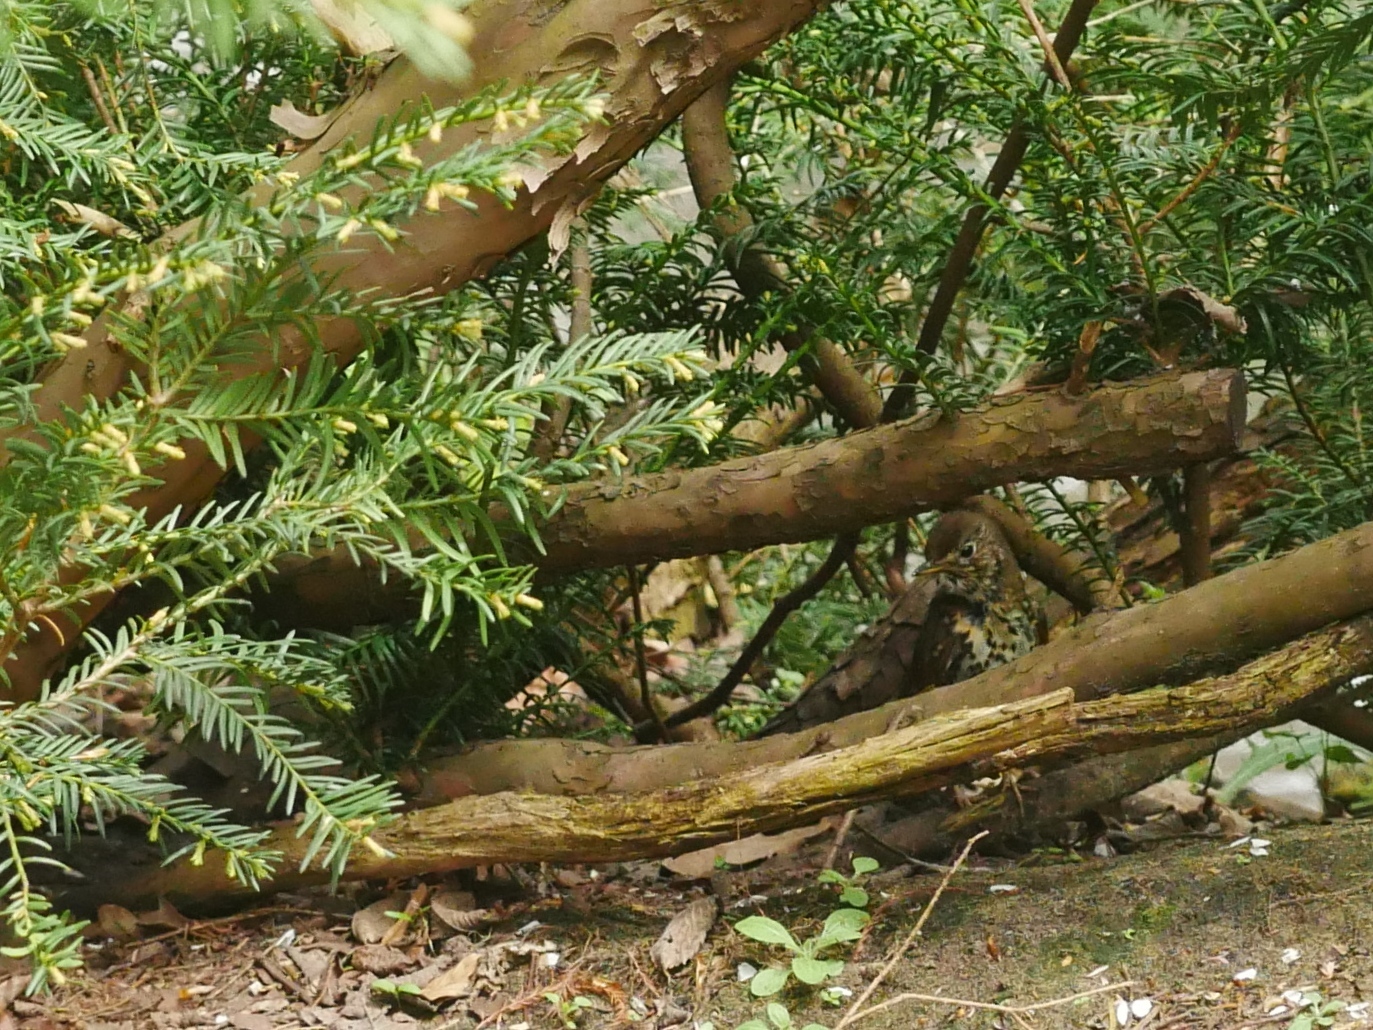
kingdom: Plantae
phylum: Tracheophyta
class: Pinopsida
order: Pinales
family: Taxaceae
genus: Taxus
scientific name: Taxus baccata
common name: Yew
